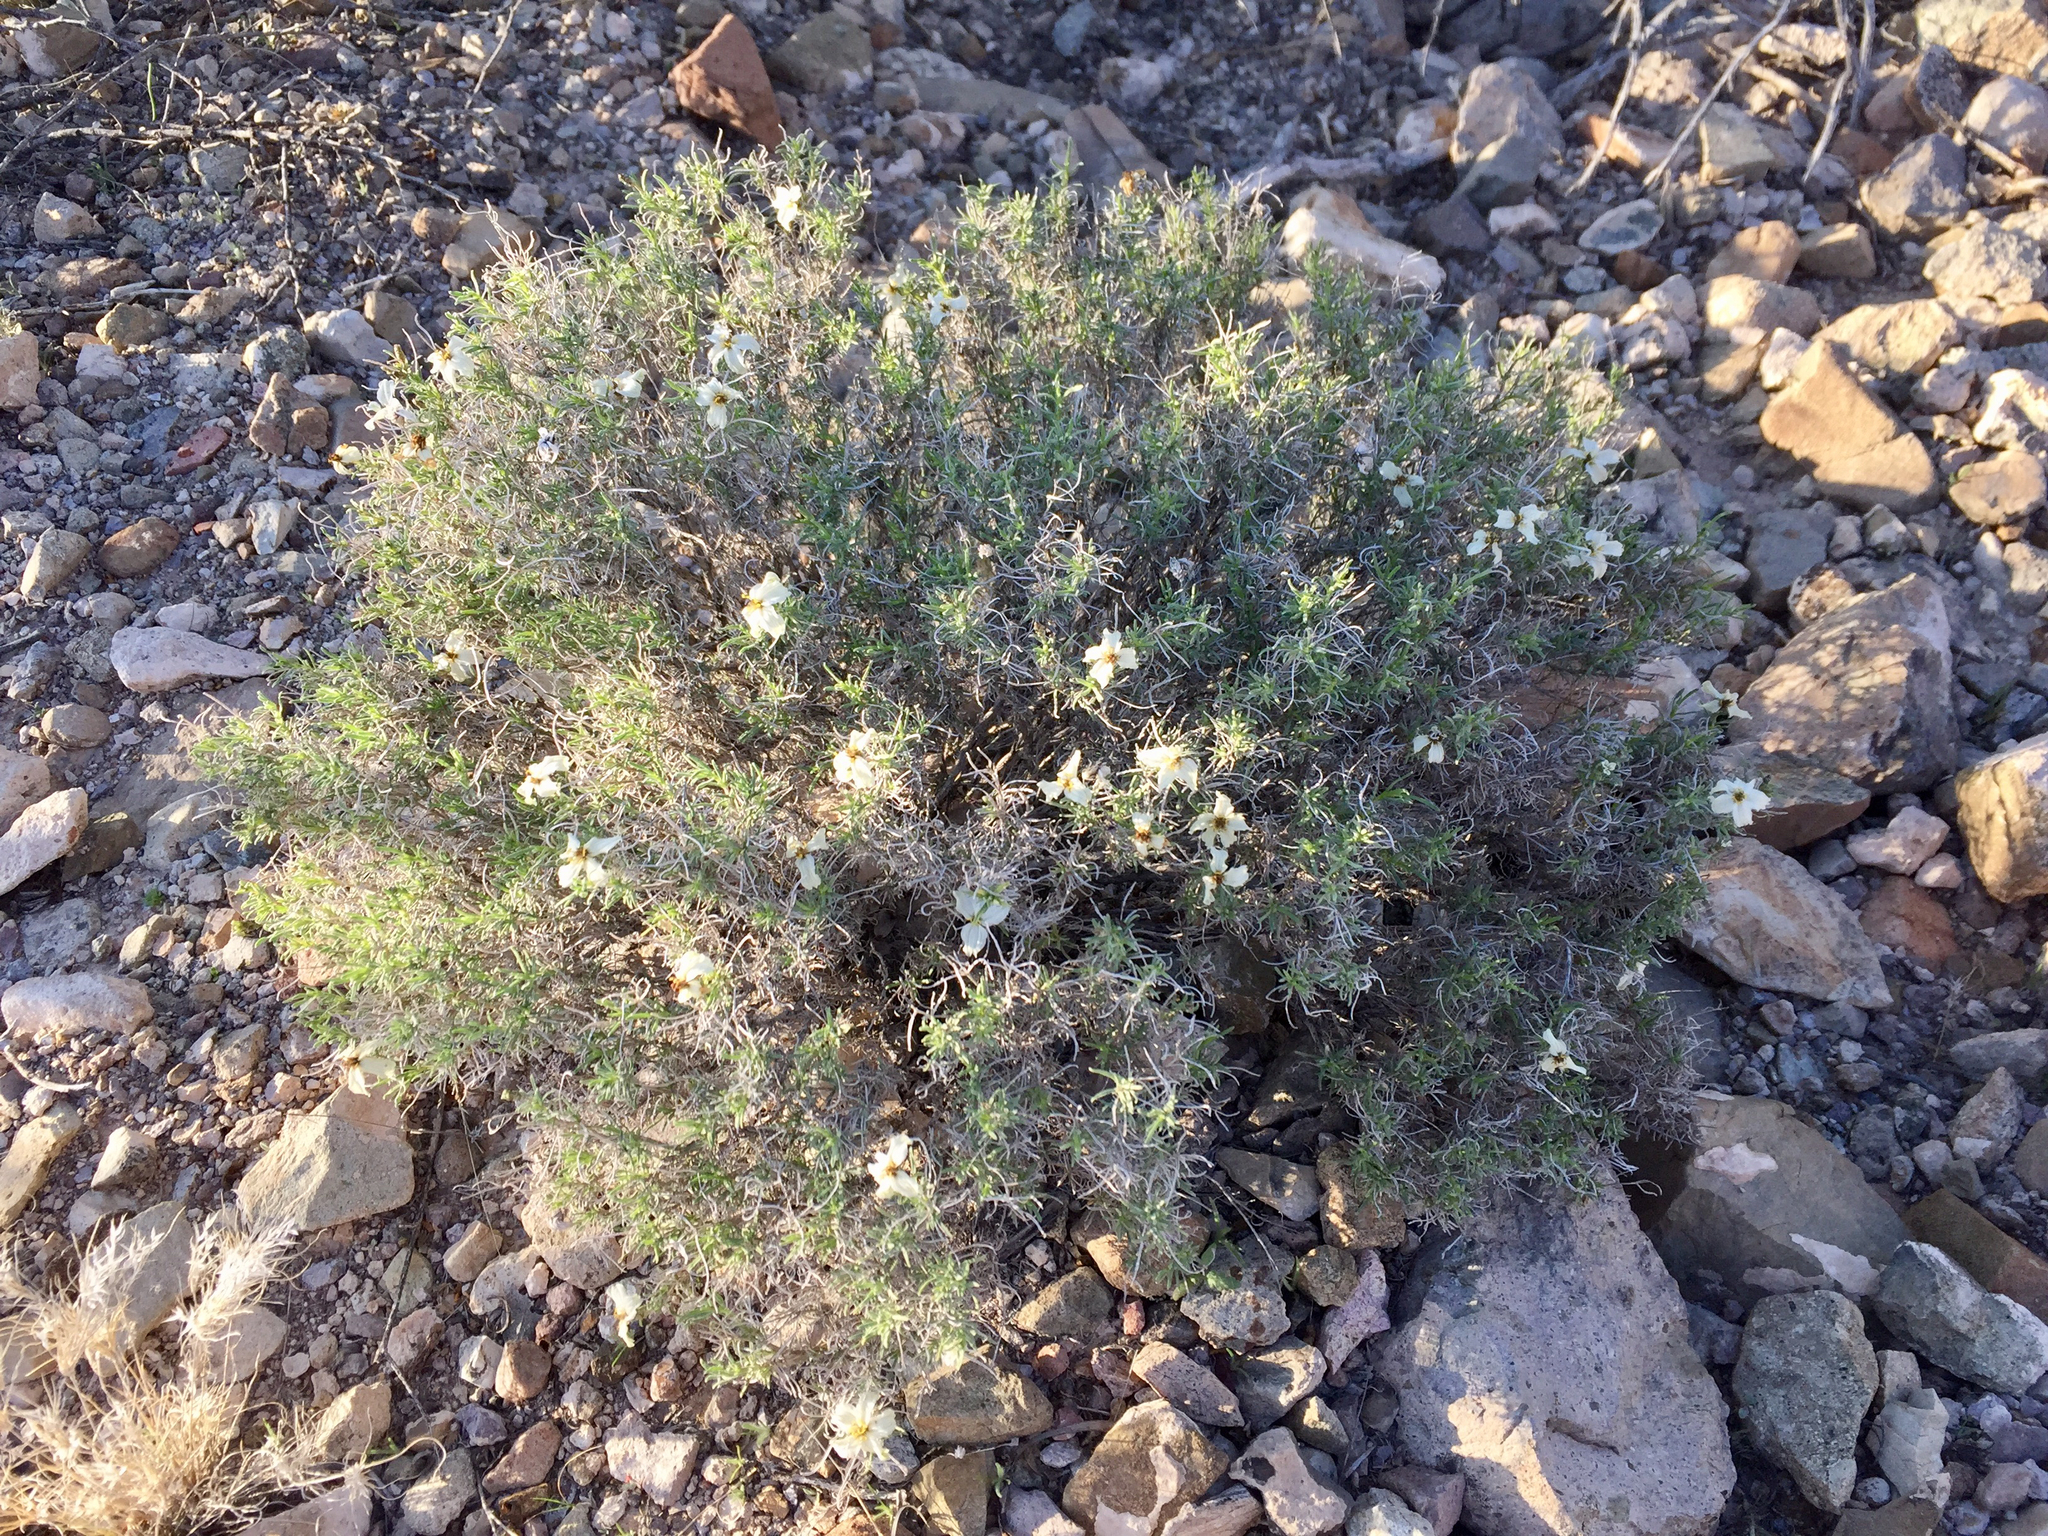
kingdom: Plantae
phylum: Tracheophyta
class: Magnoliopsida
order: Asterales
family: Asteraceae
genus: Zinnia
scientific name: Zinnia acerosa
